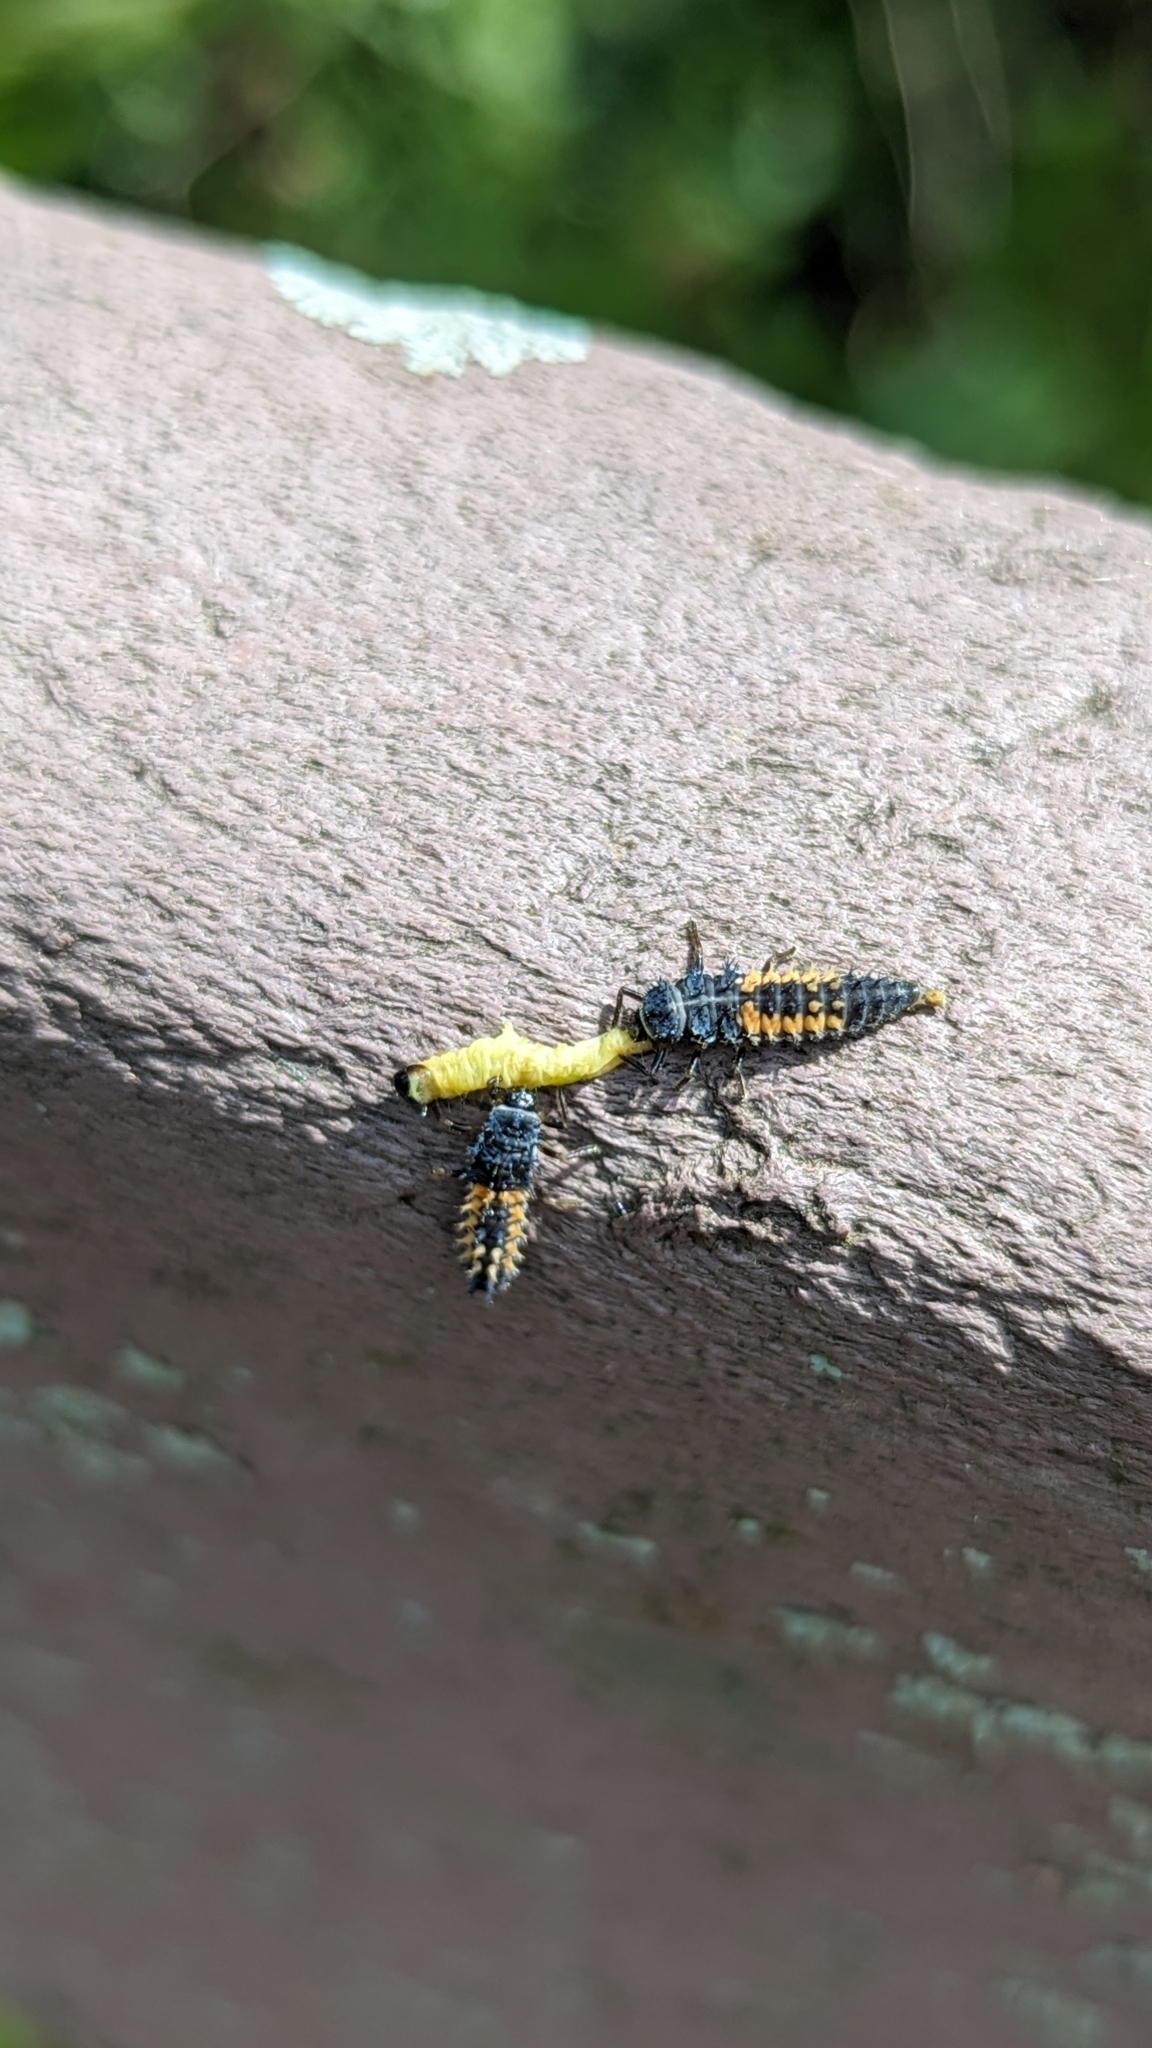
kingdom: Animalia
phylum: Arthropoda
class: Insecta
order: Coleoptera
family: Coccinellidae
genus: Harmonia
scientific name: Harmonia axyridis
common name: Harlequin ladybird
